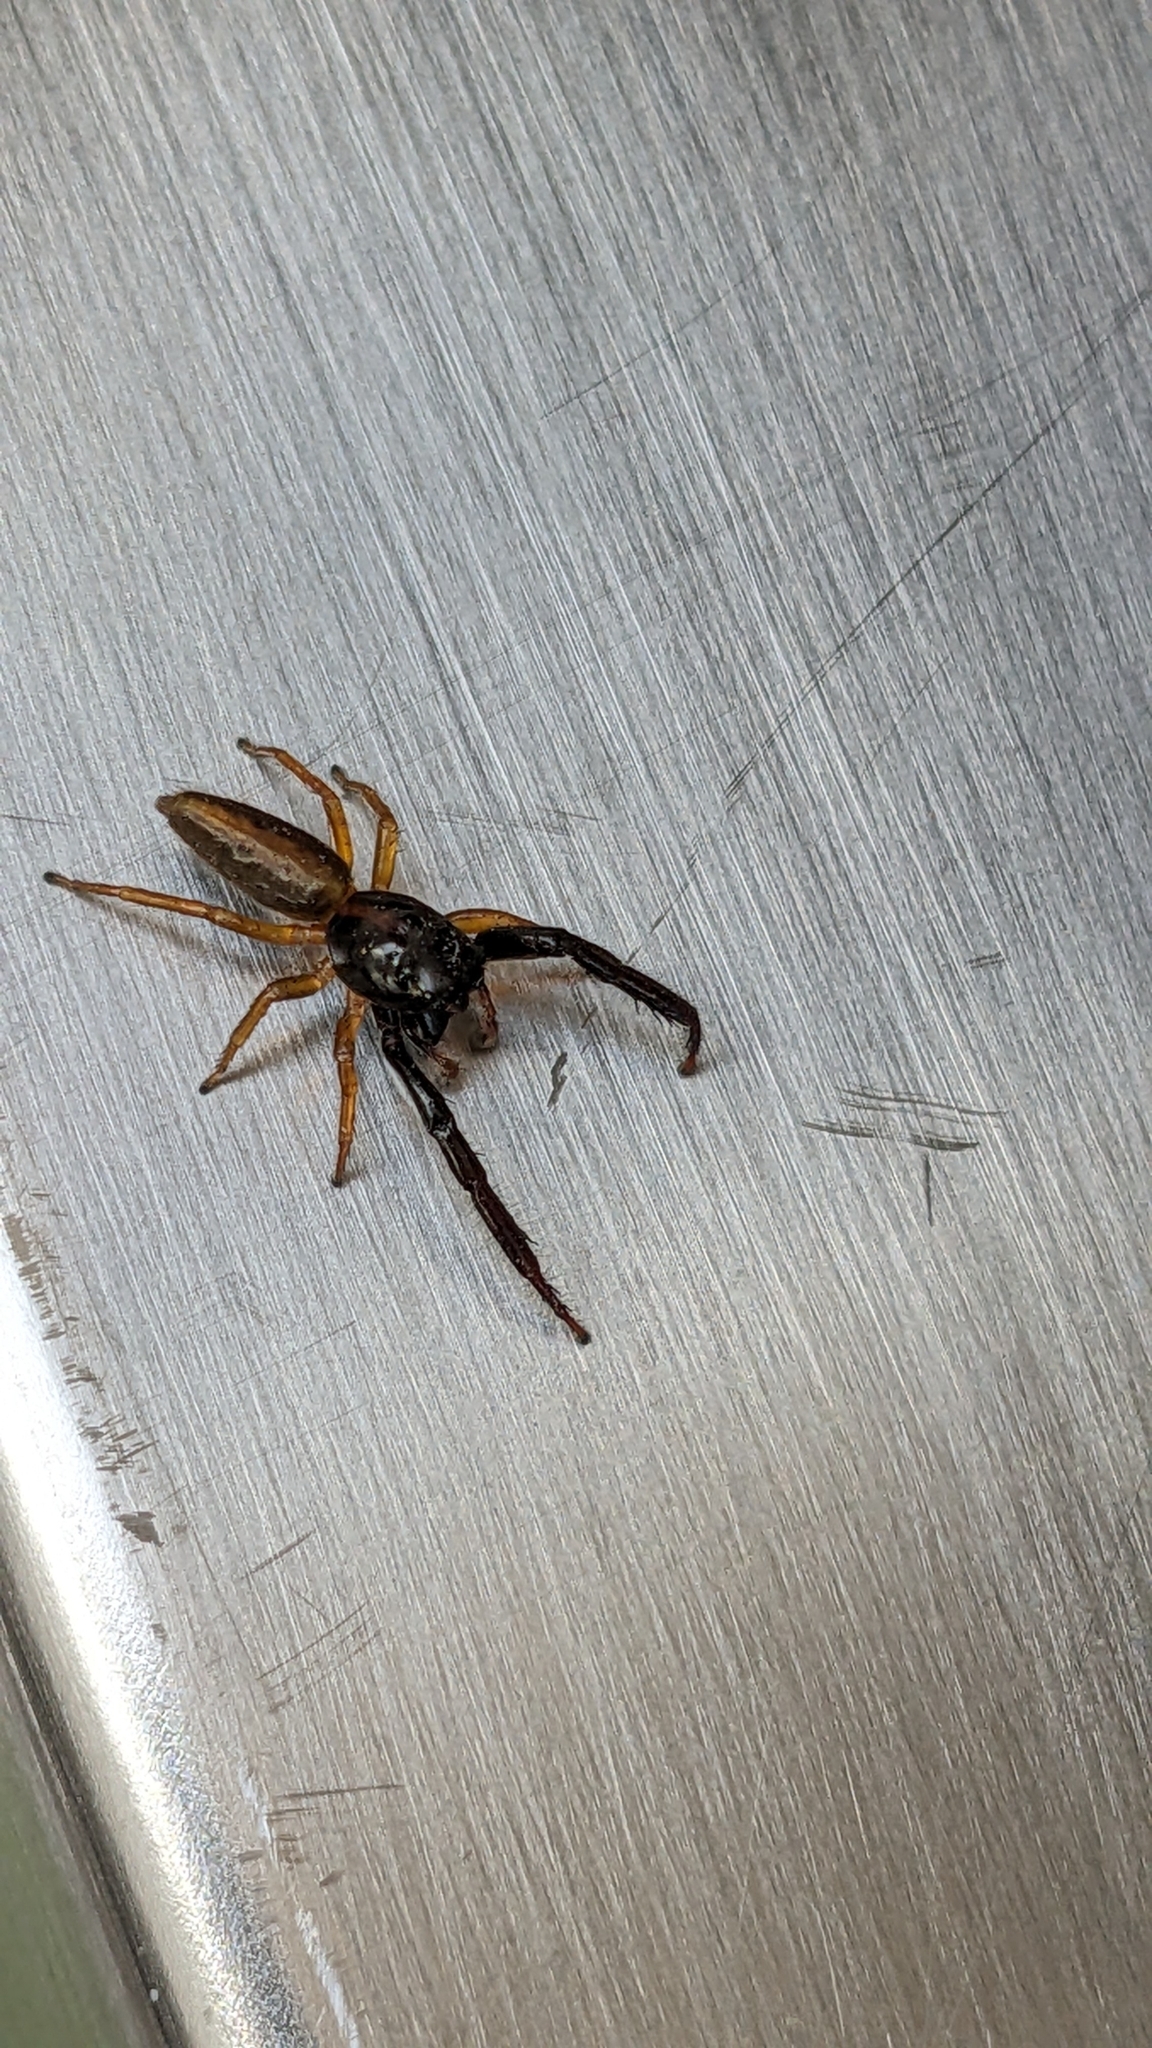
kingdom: Animalia
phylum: Arthropoda
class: Arachnida
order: Araneae
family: Salticidae
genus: Trite
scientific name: Trite planiceps
